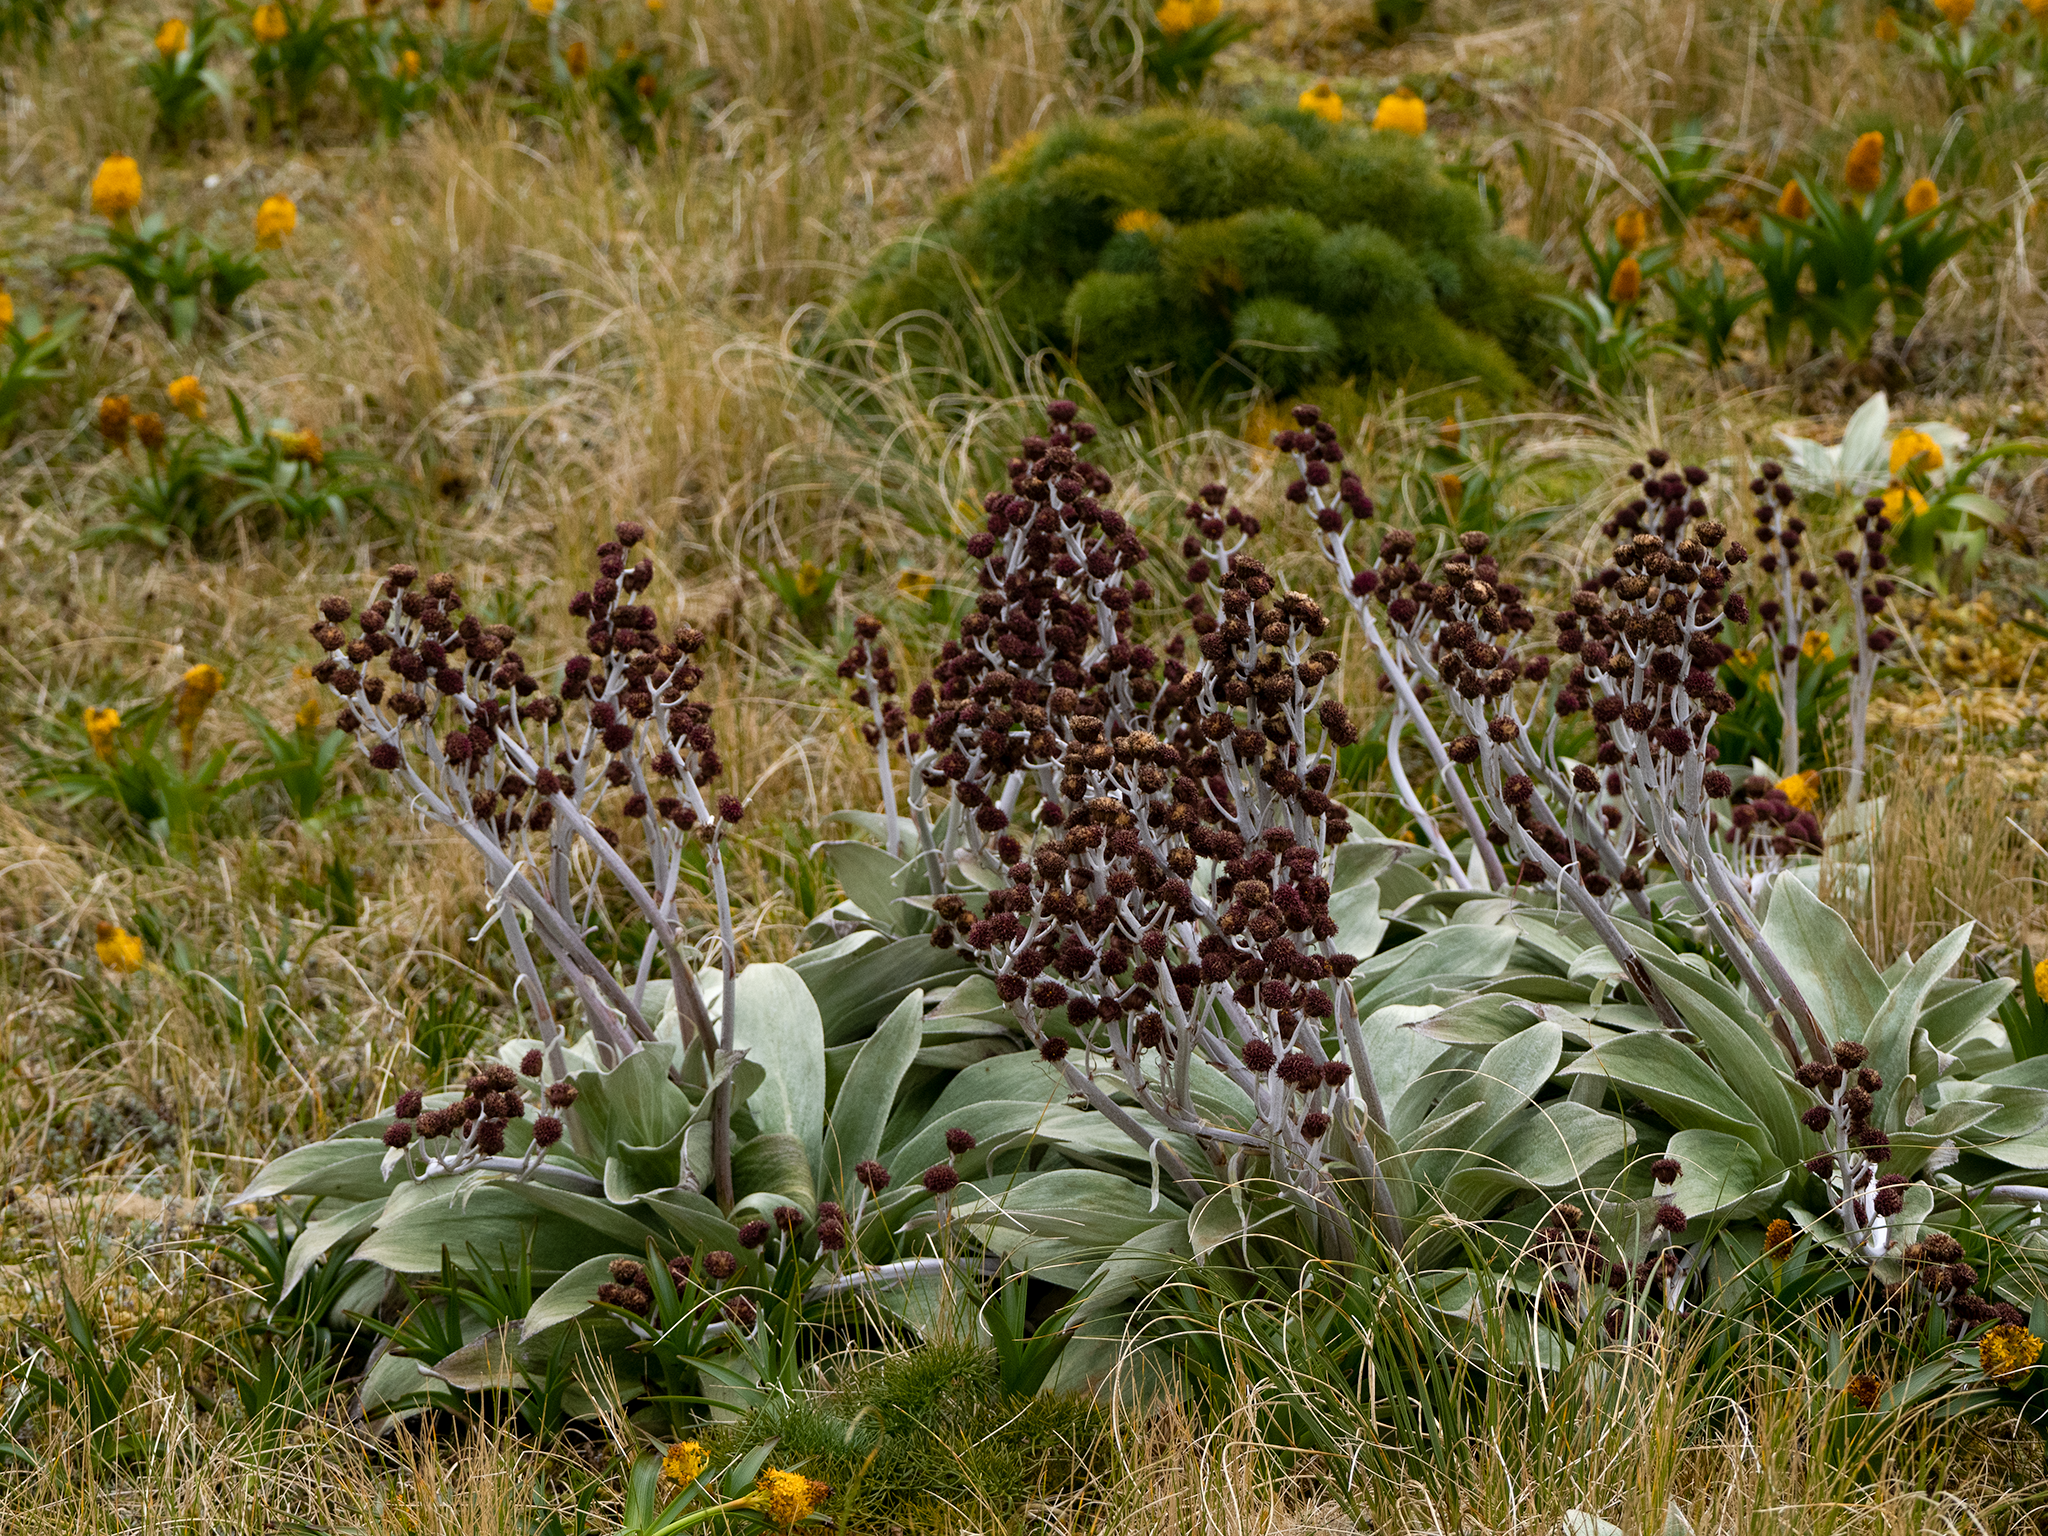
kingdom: Plantae
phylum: Tracheophyta
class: Magnoliopsida
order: Asterales
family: Asteraceae
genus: Pleurophyllum
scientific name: Pleurophyllum hookeri
